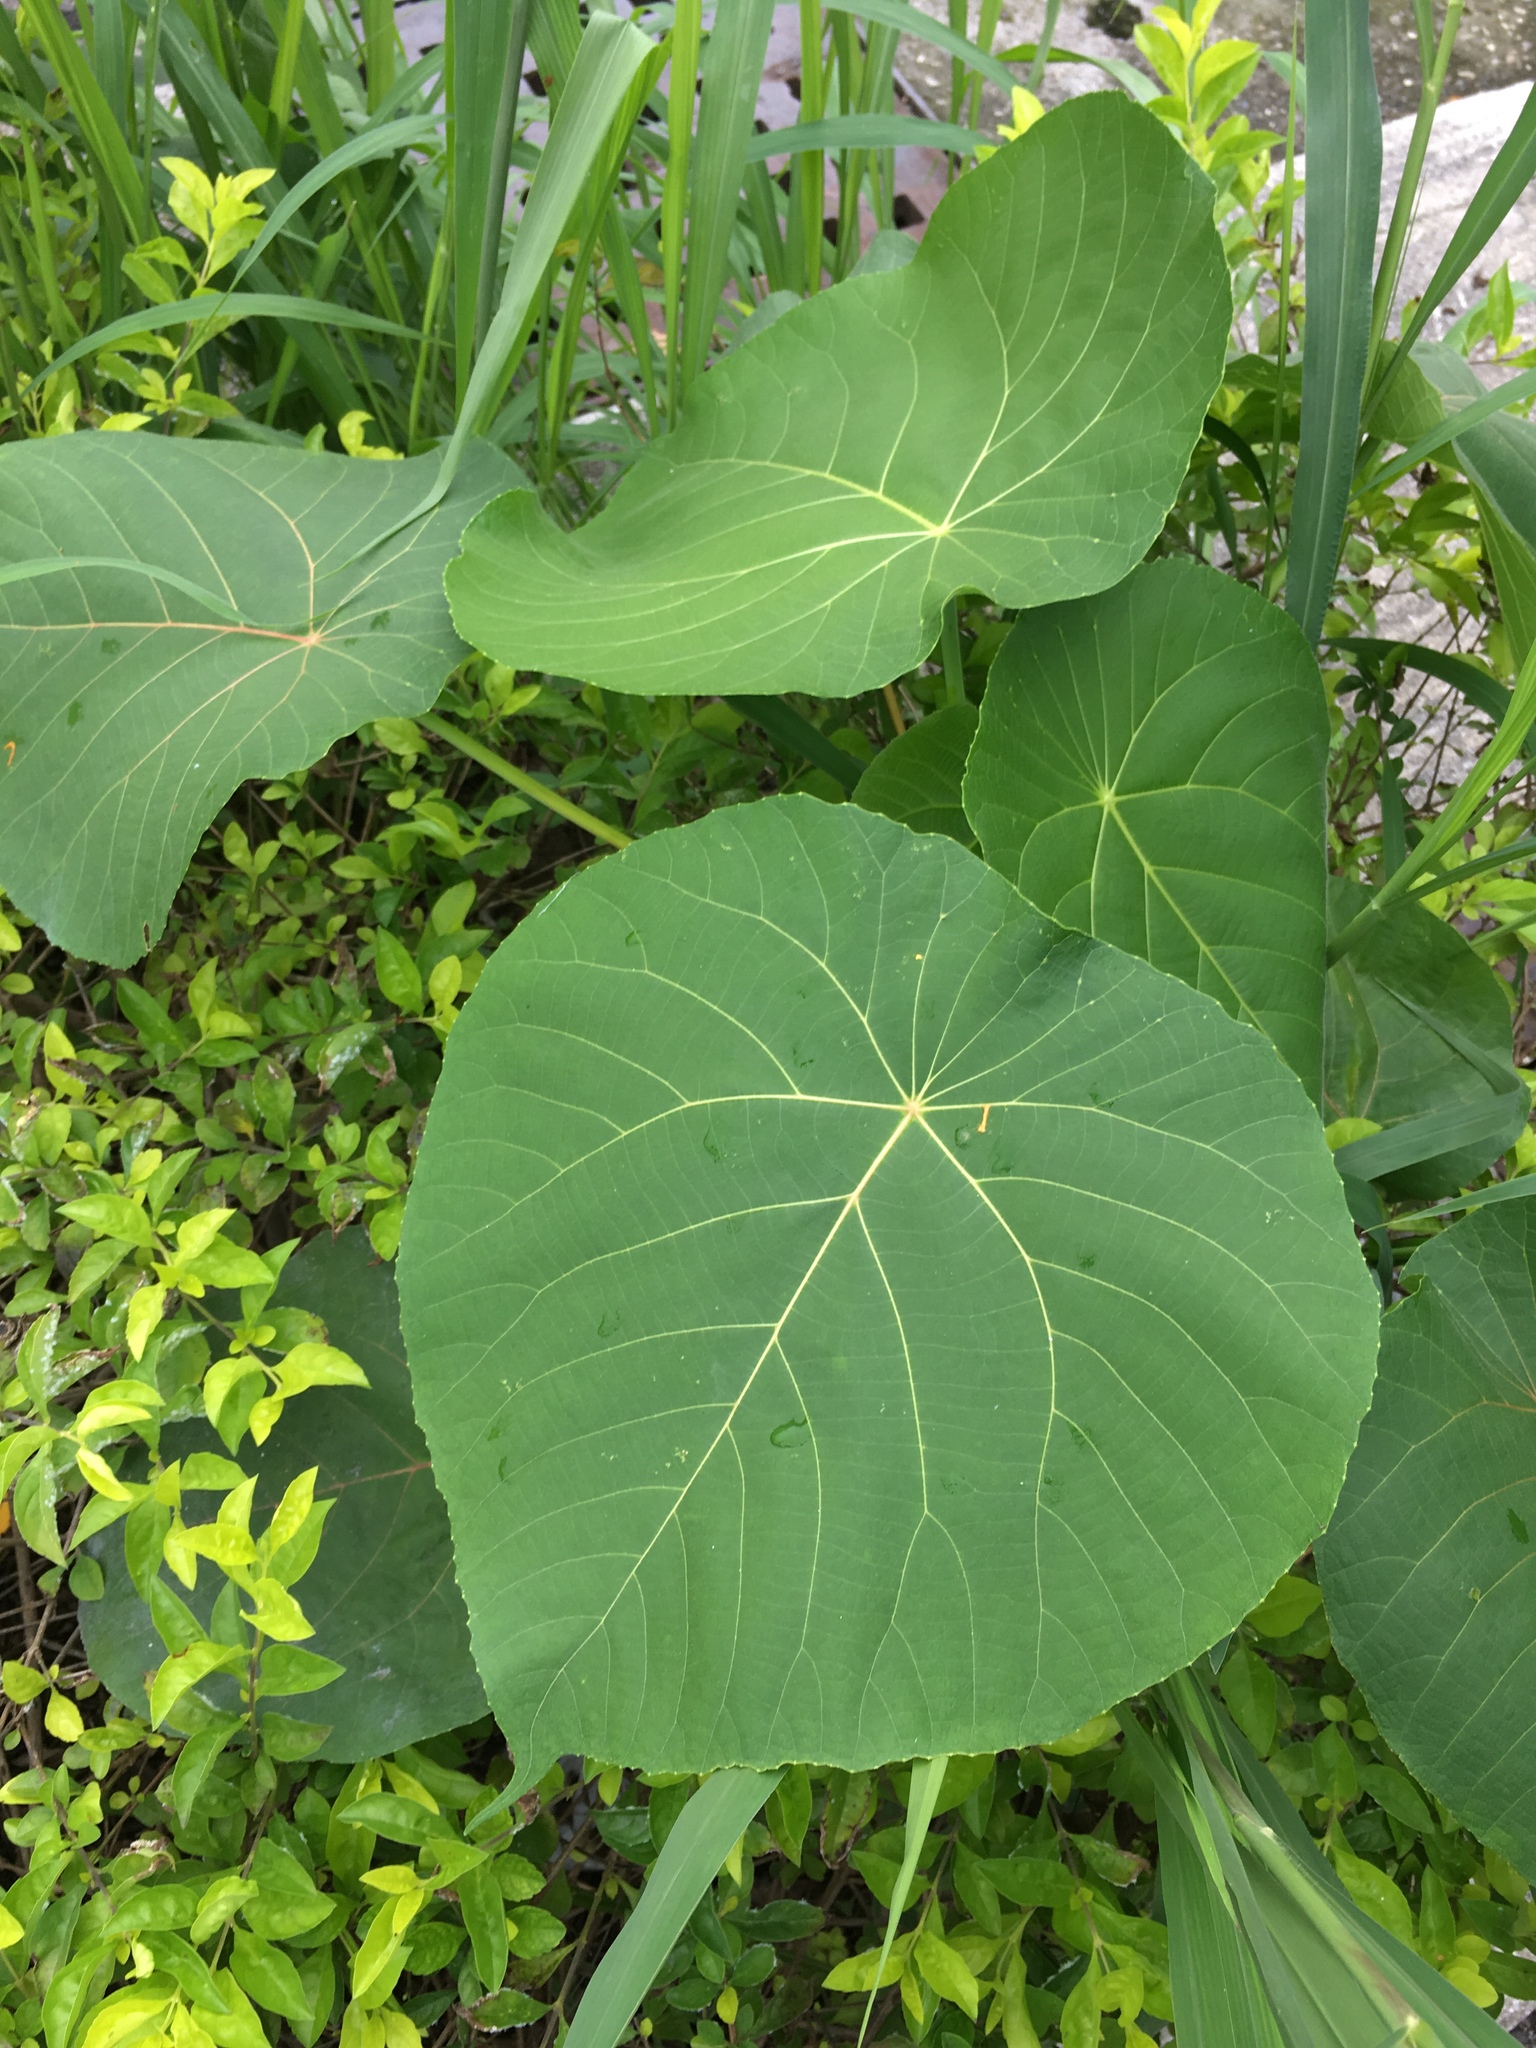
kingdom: Plantae
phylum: Tracheophyta
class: Magnoliopsida
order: Malpighiales
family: Euphorbiaceae
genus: Macaranga
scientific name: Macaranga tanarius
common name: Parasol leaf tree
